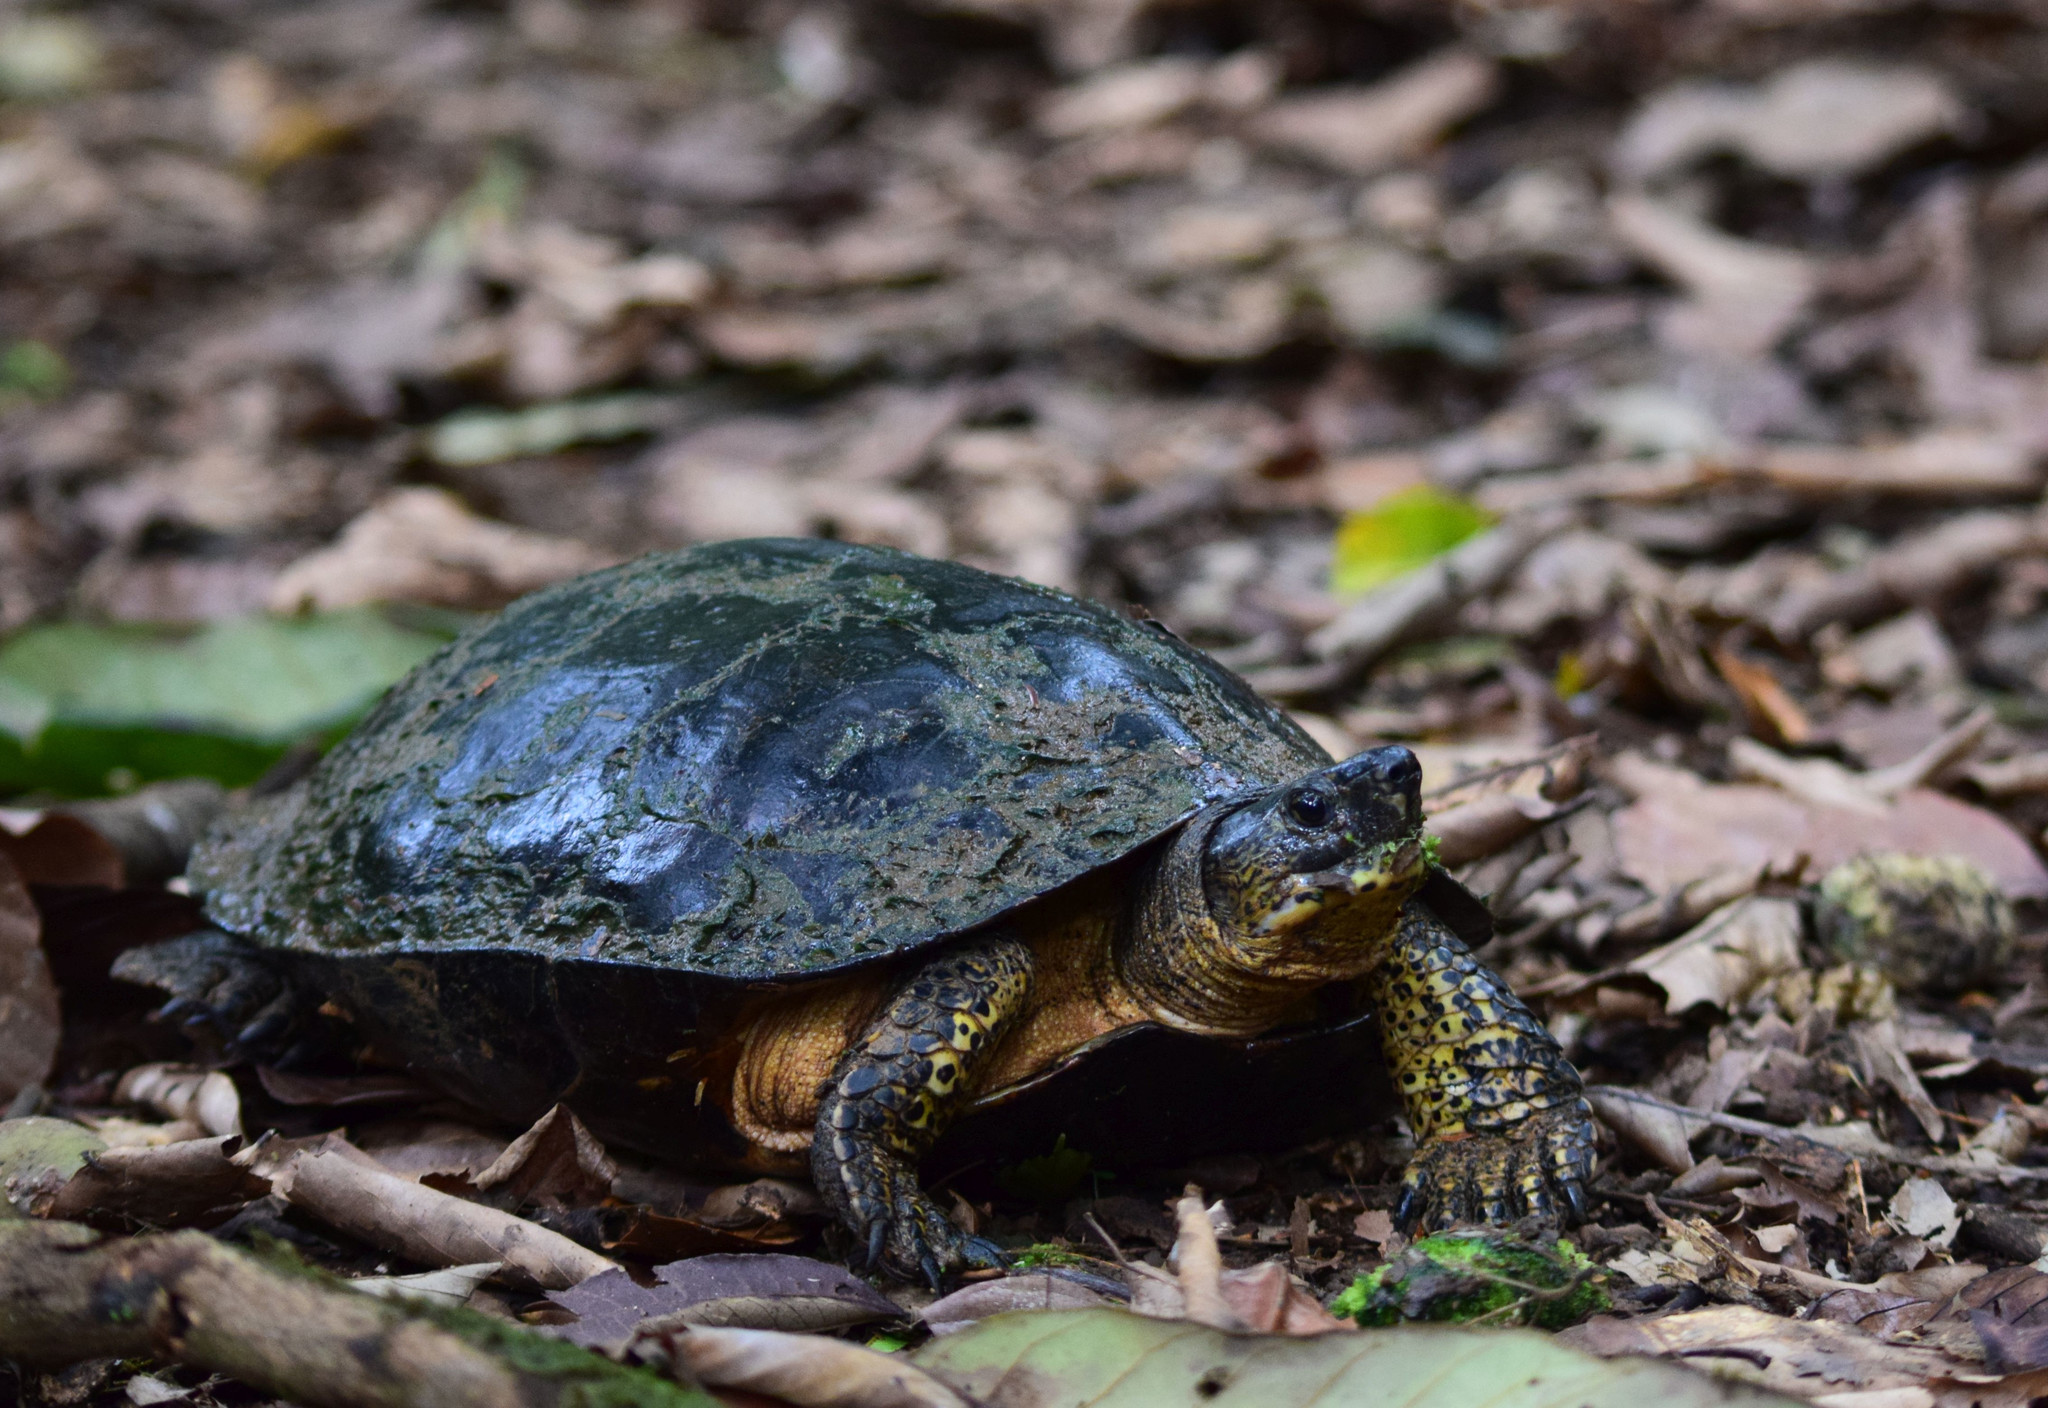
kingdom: Animalia
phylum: Chordata
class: Testudines
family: Geoemydidae
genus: Rhinoclemmys
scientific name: Rhinoclemmys funerea
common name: Black wood turtle
